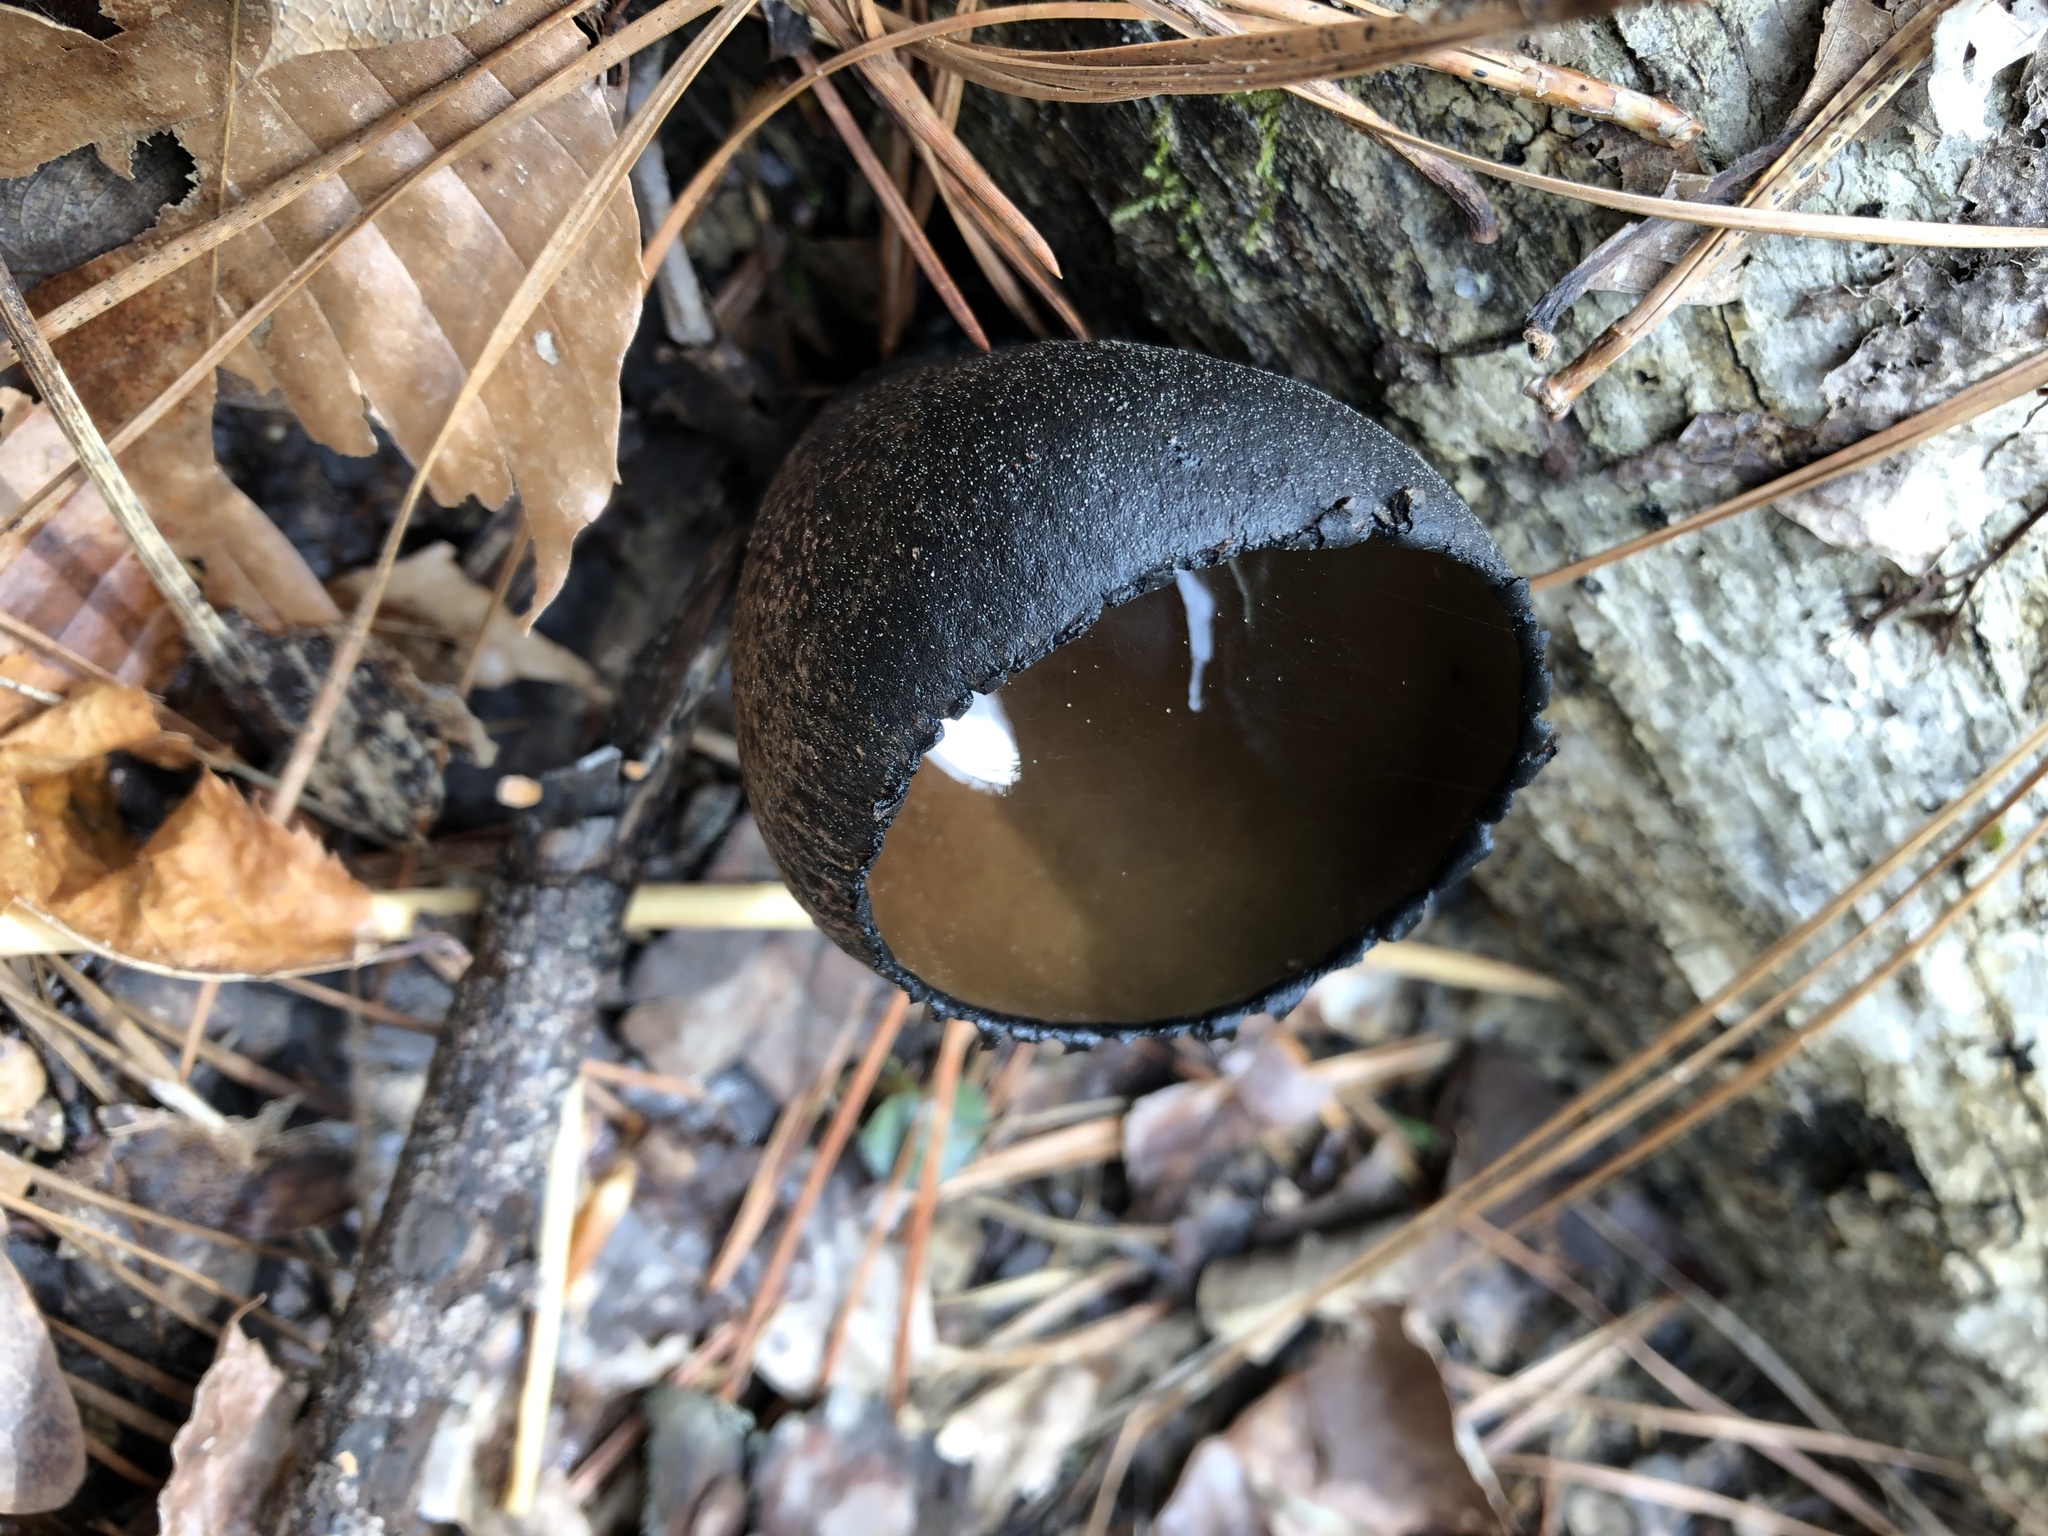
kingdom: Fungi
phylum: Ascomycota
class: Pezizomycetes
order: Pezizales
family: Sarcosomataceae
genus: Urnula
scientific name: Urnula craterium
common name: Devil's urn
